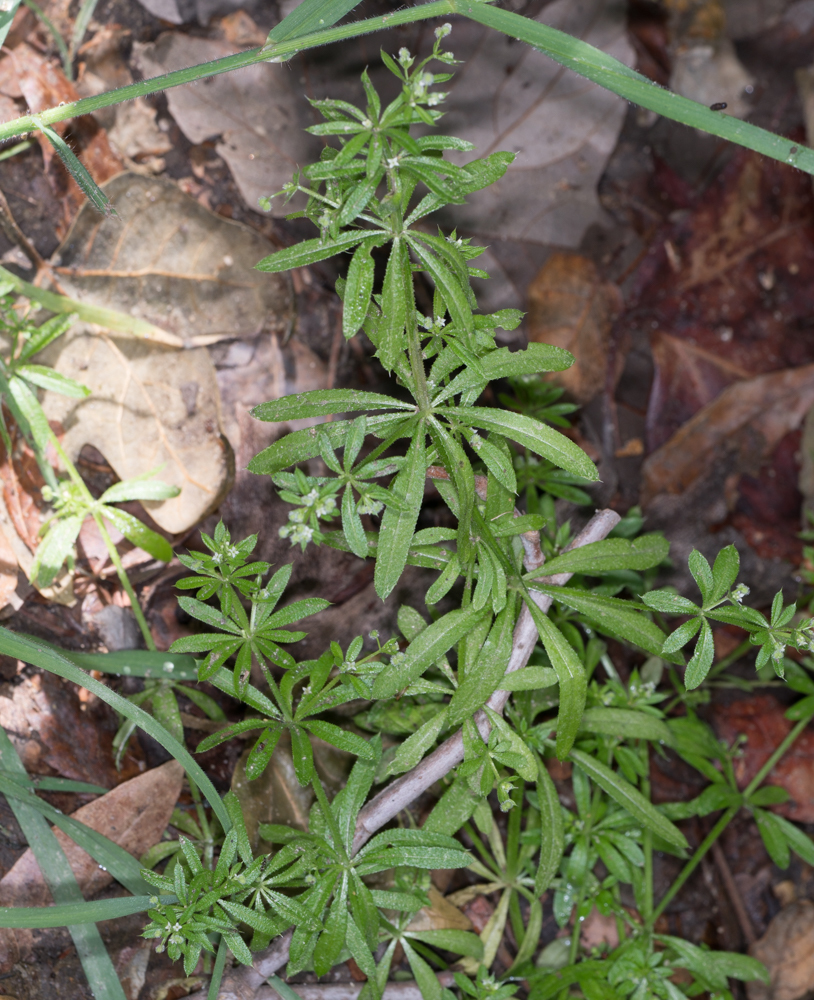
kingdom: Plantae
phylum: Tracheophyta
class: Magnoliopsida
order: Gentianales
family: Rubiaceae
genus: Galium
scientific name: Galium aparine
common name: Cleavers
